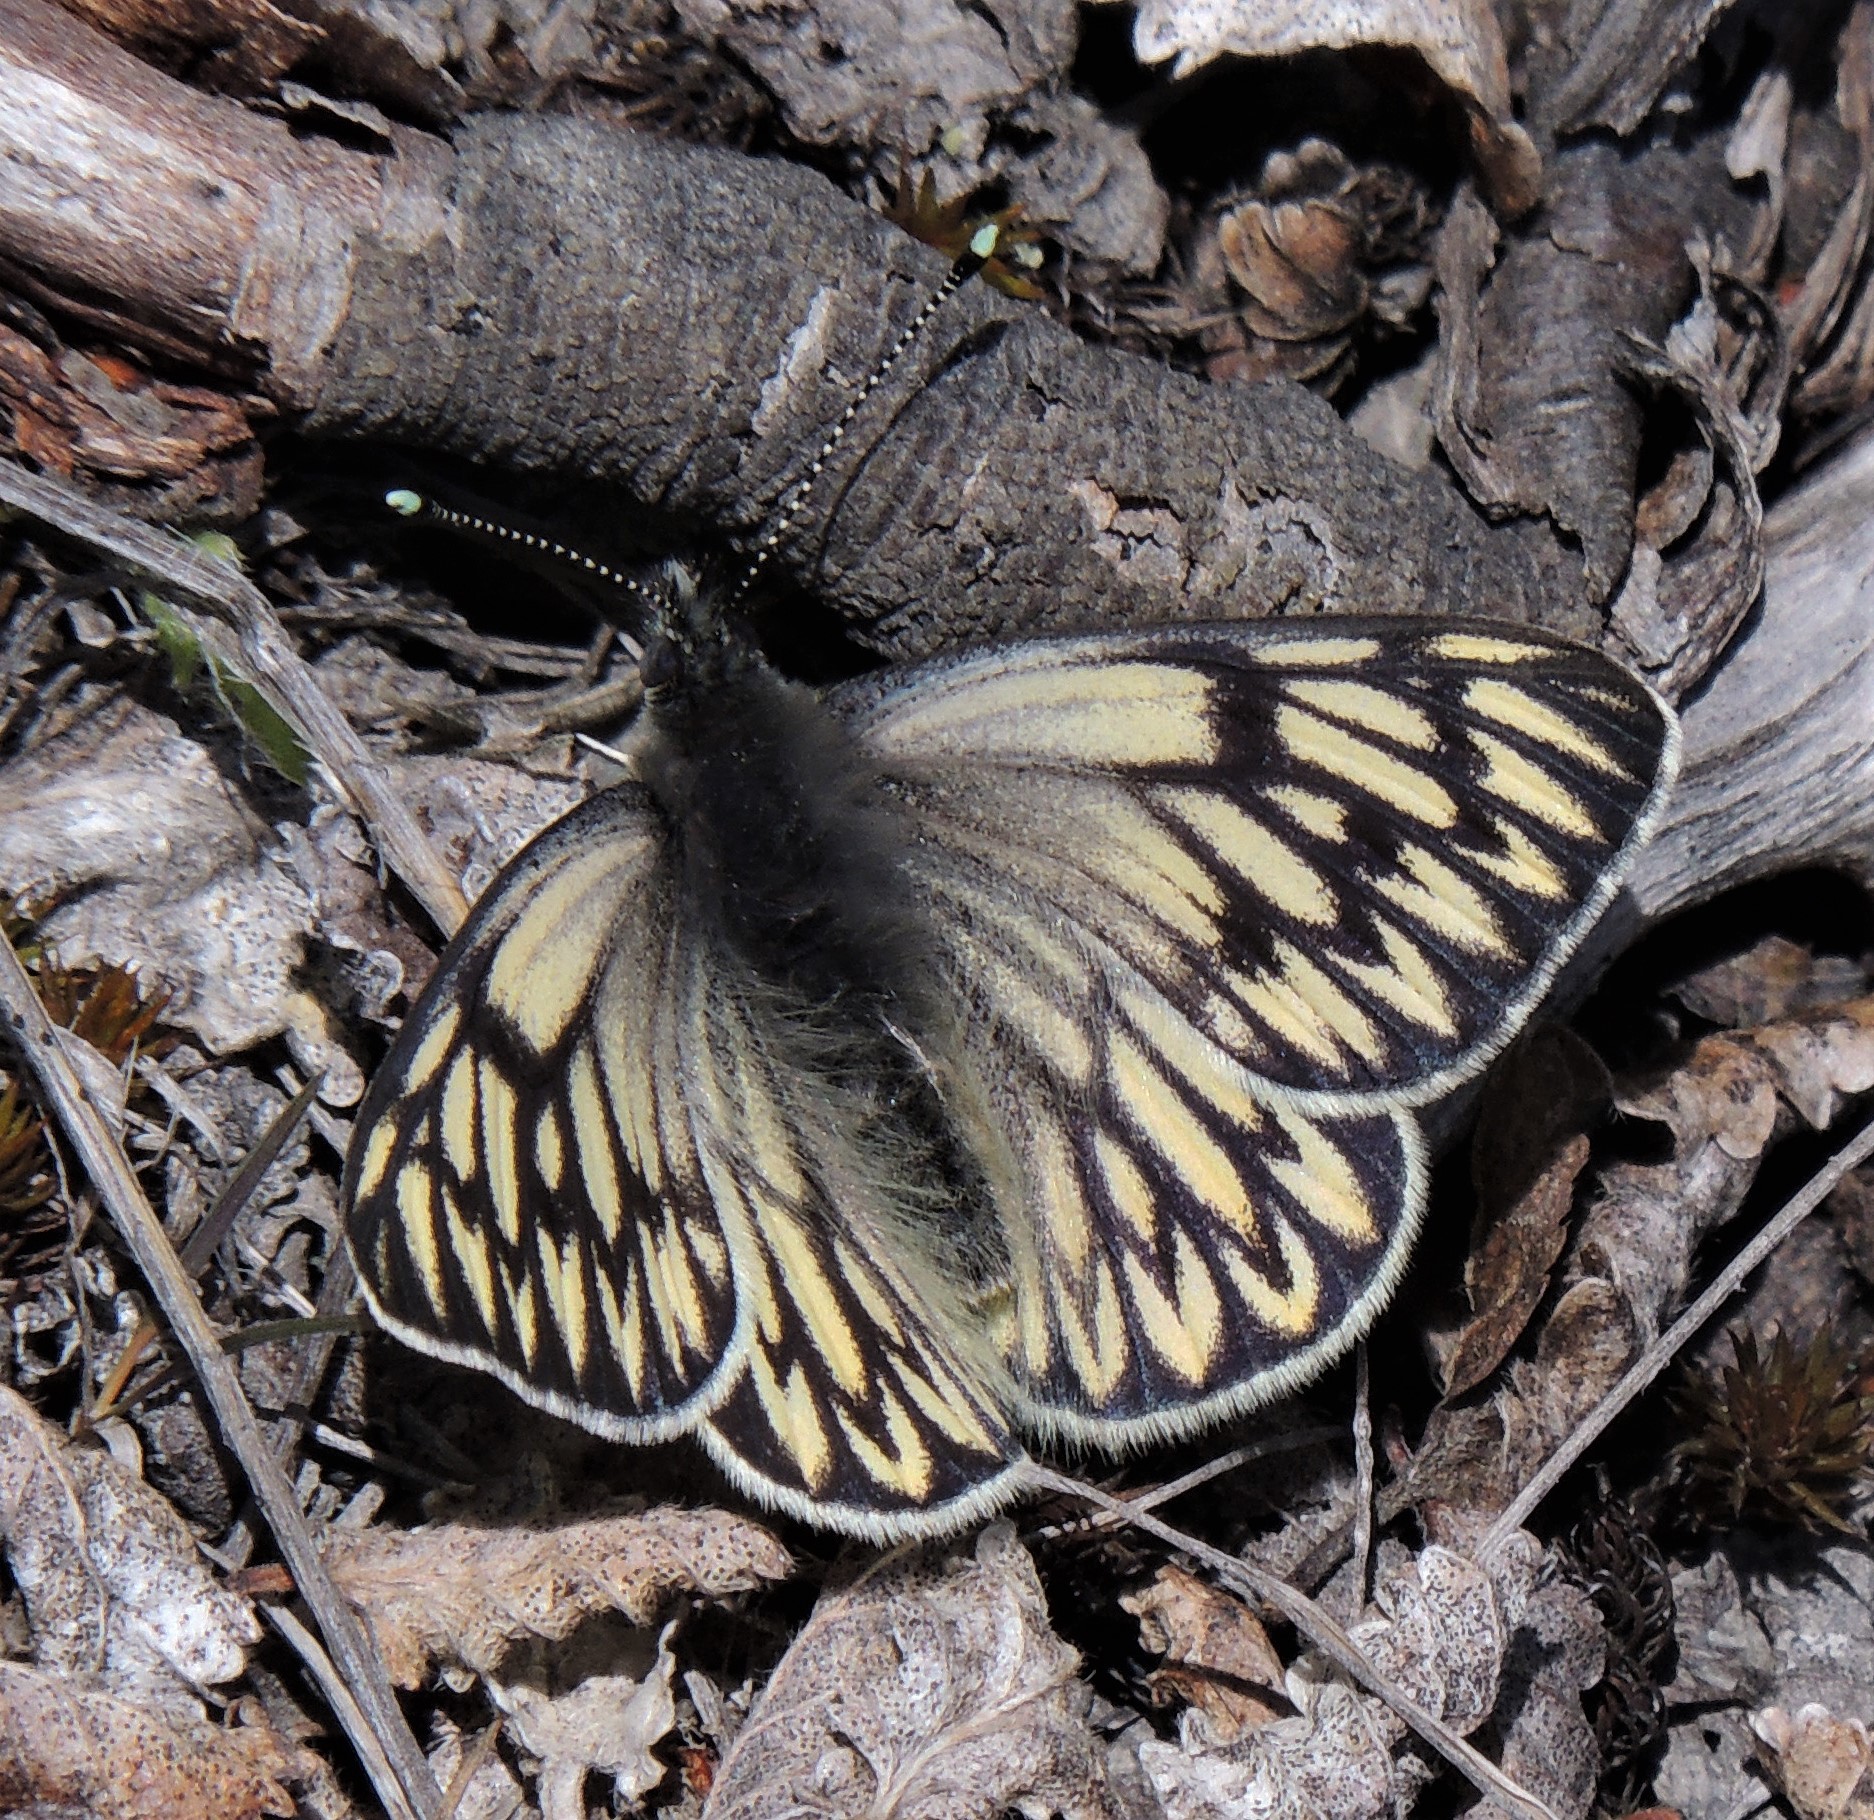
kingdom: Animalia
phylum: Arthropoda
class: Insecta
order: Lepidoptera
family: Pieridae
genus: Tatochila
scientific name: Tatochila theodice
